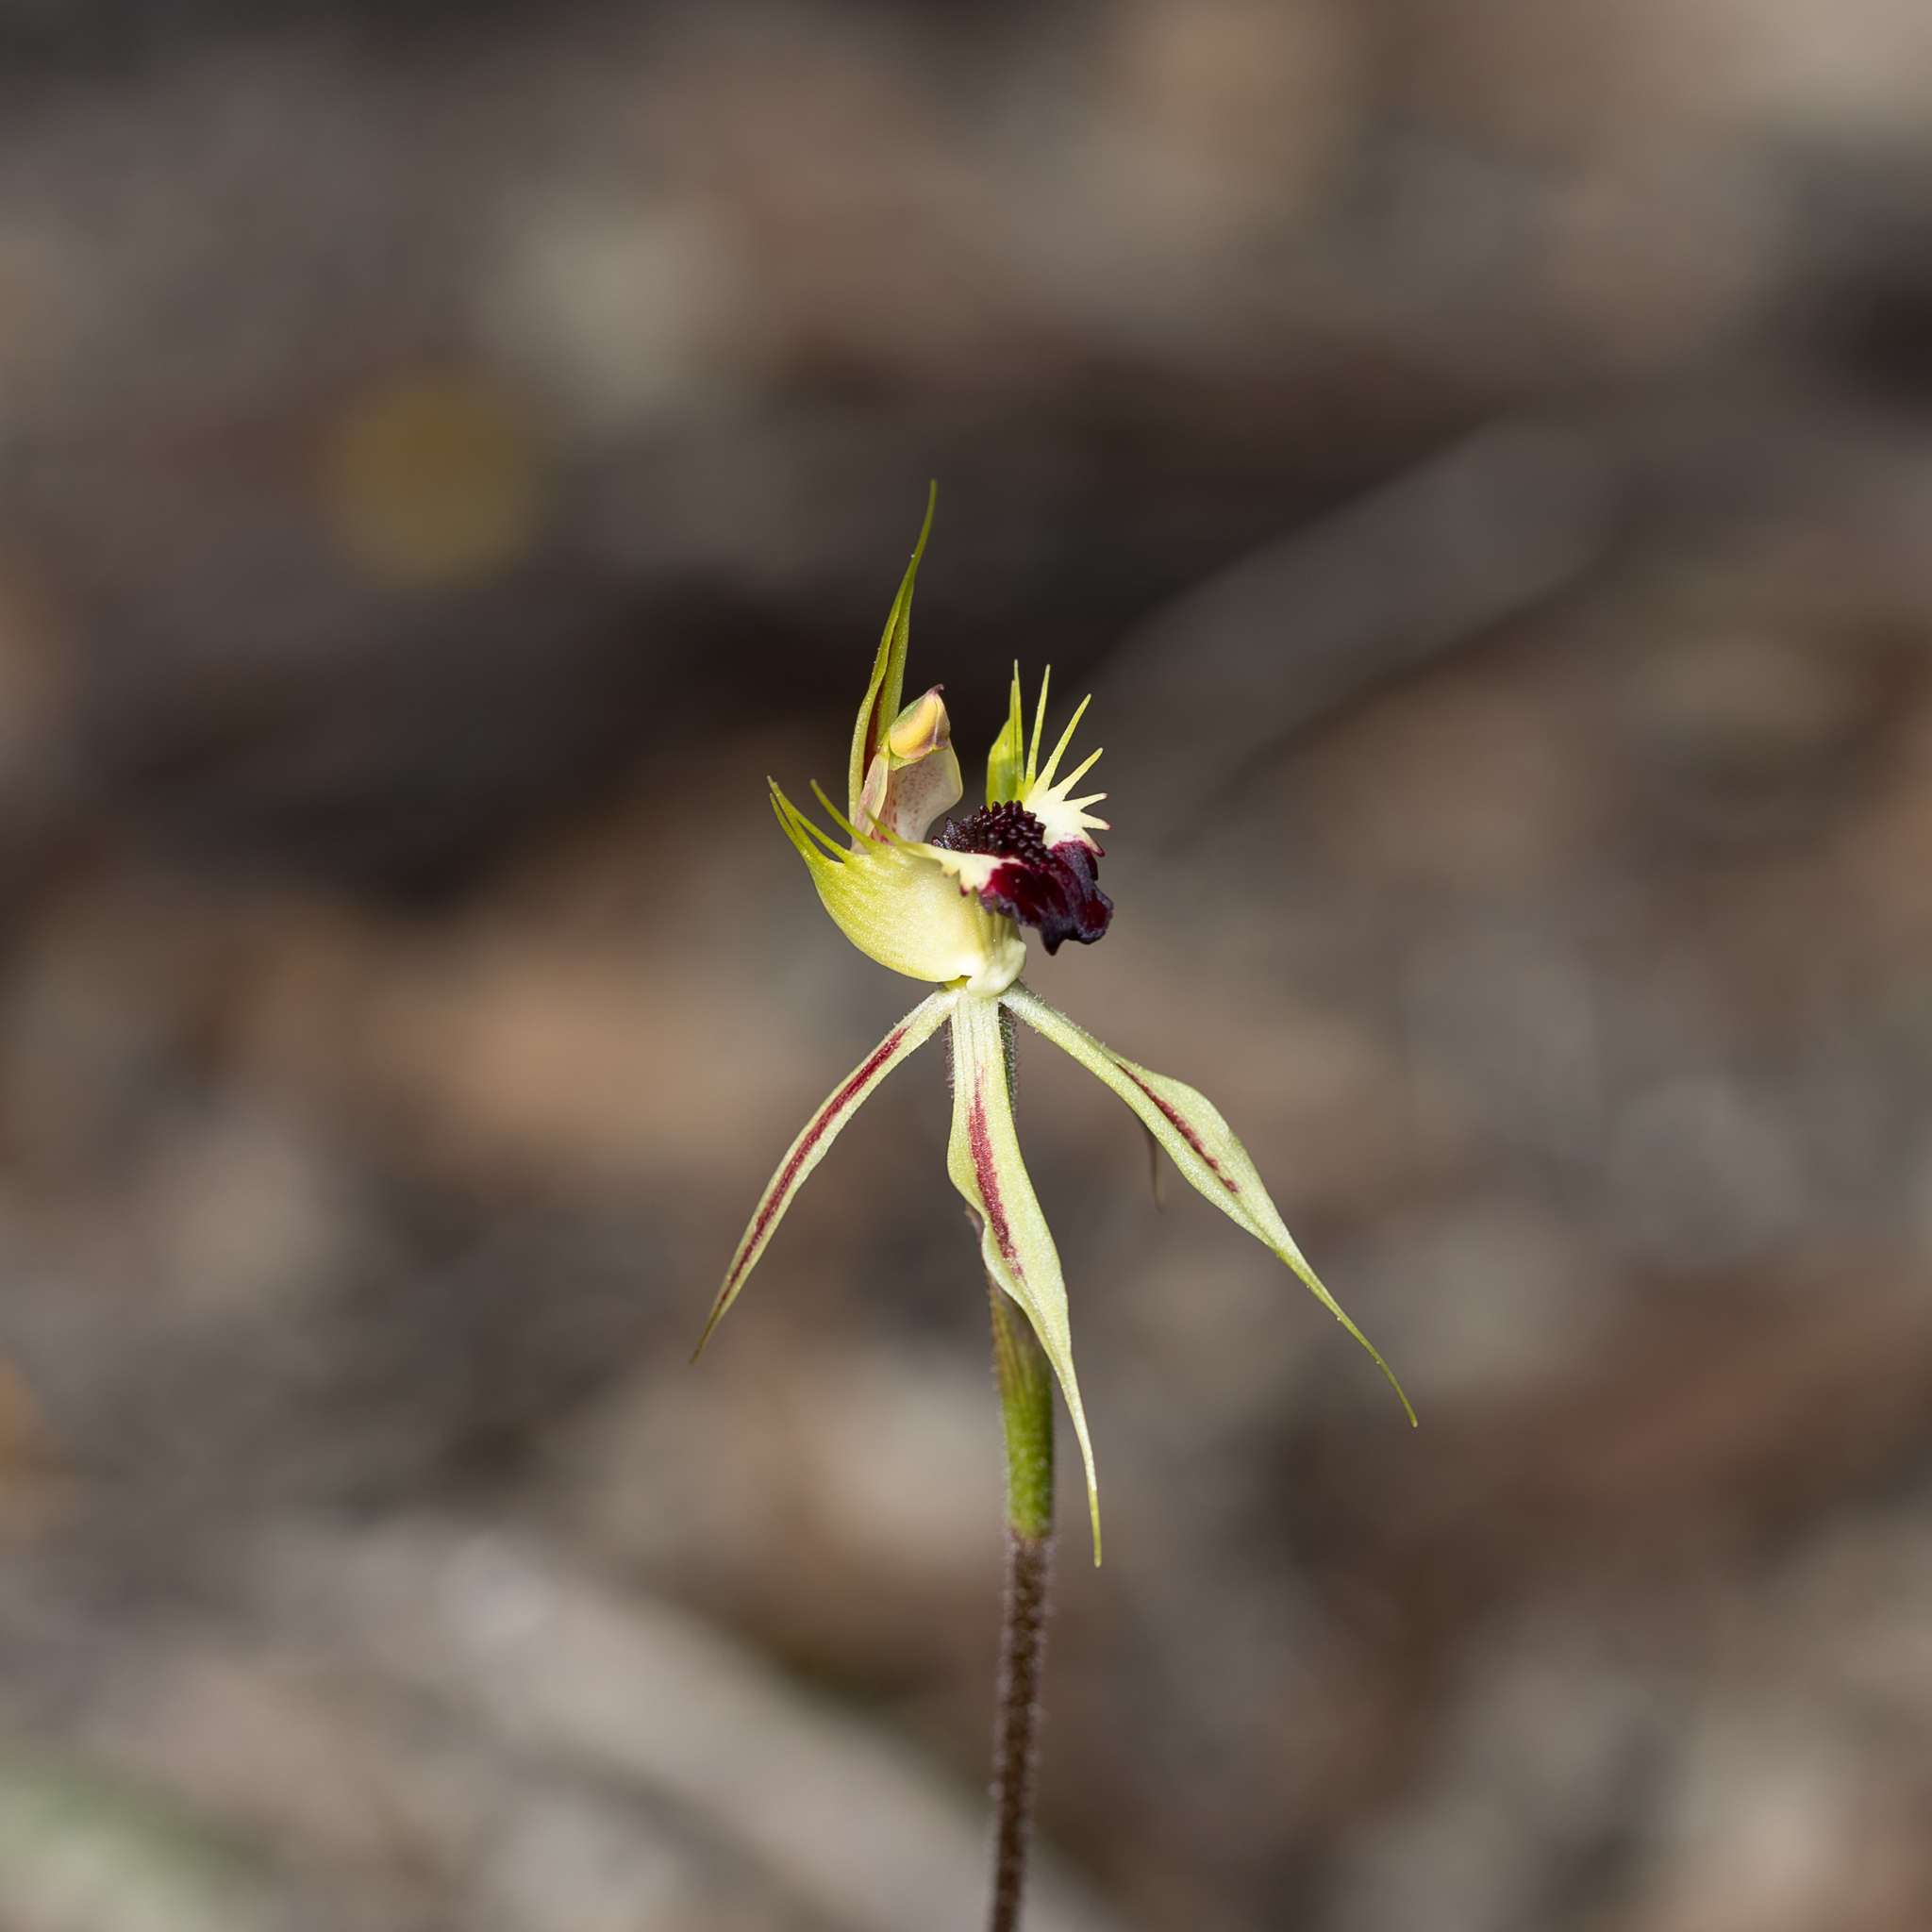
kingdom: Plantae
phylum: Tracheophyta
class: Liliopsida
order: Asparagales
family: Orchidaceae
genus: Caladenia
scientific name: Caladenia stricta
